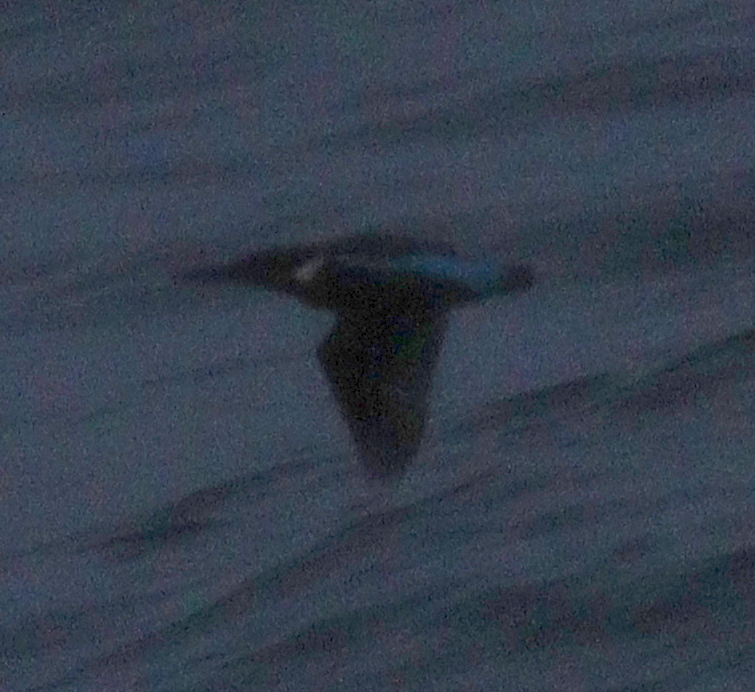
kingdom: Animalia
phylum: Chordata
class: Aves
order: Coraciiformes
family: Alcedinidae
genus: Alcedo
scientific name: Alcedo atthis
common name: Common kingfisher
